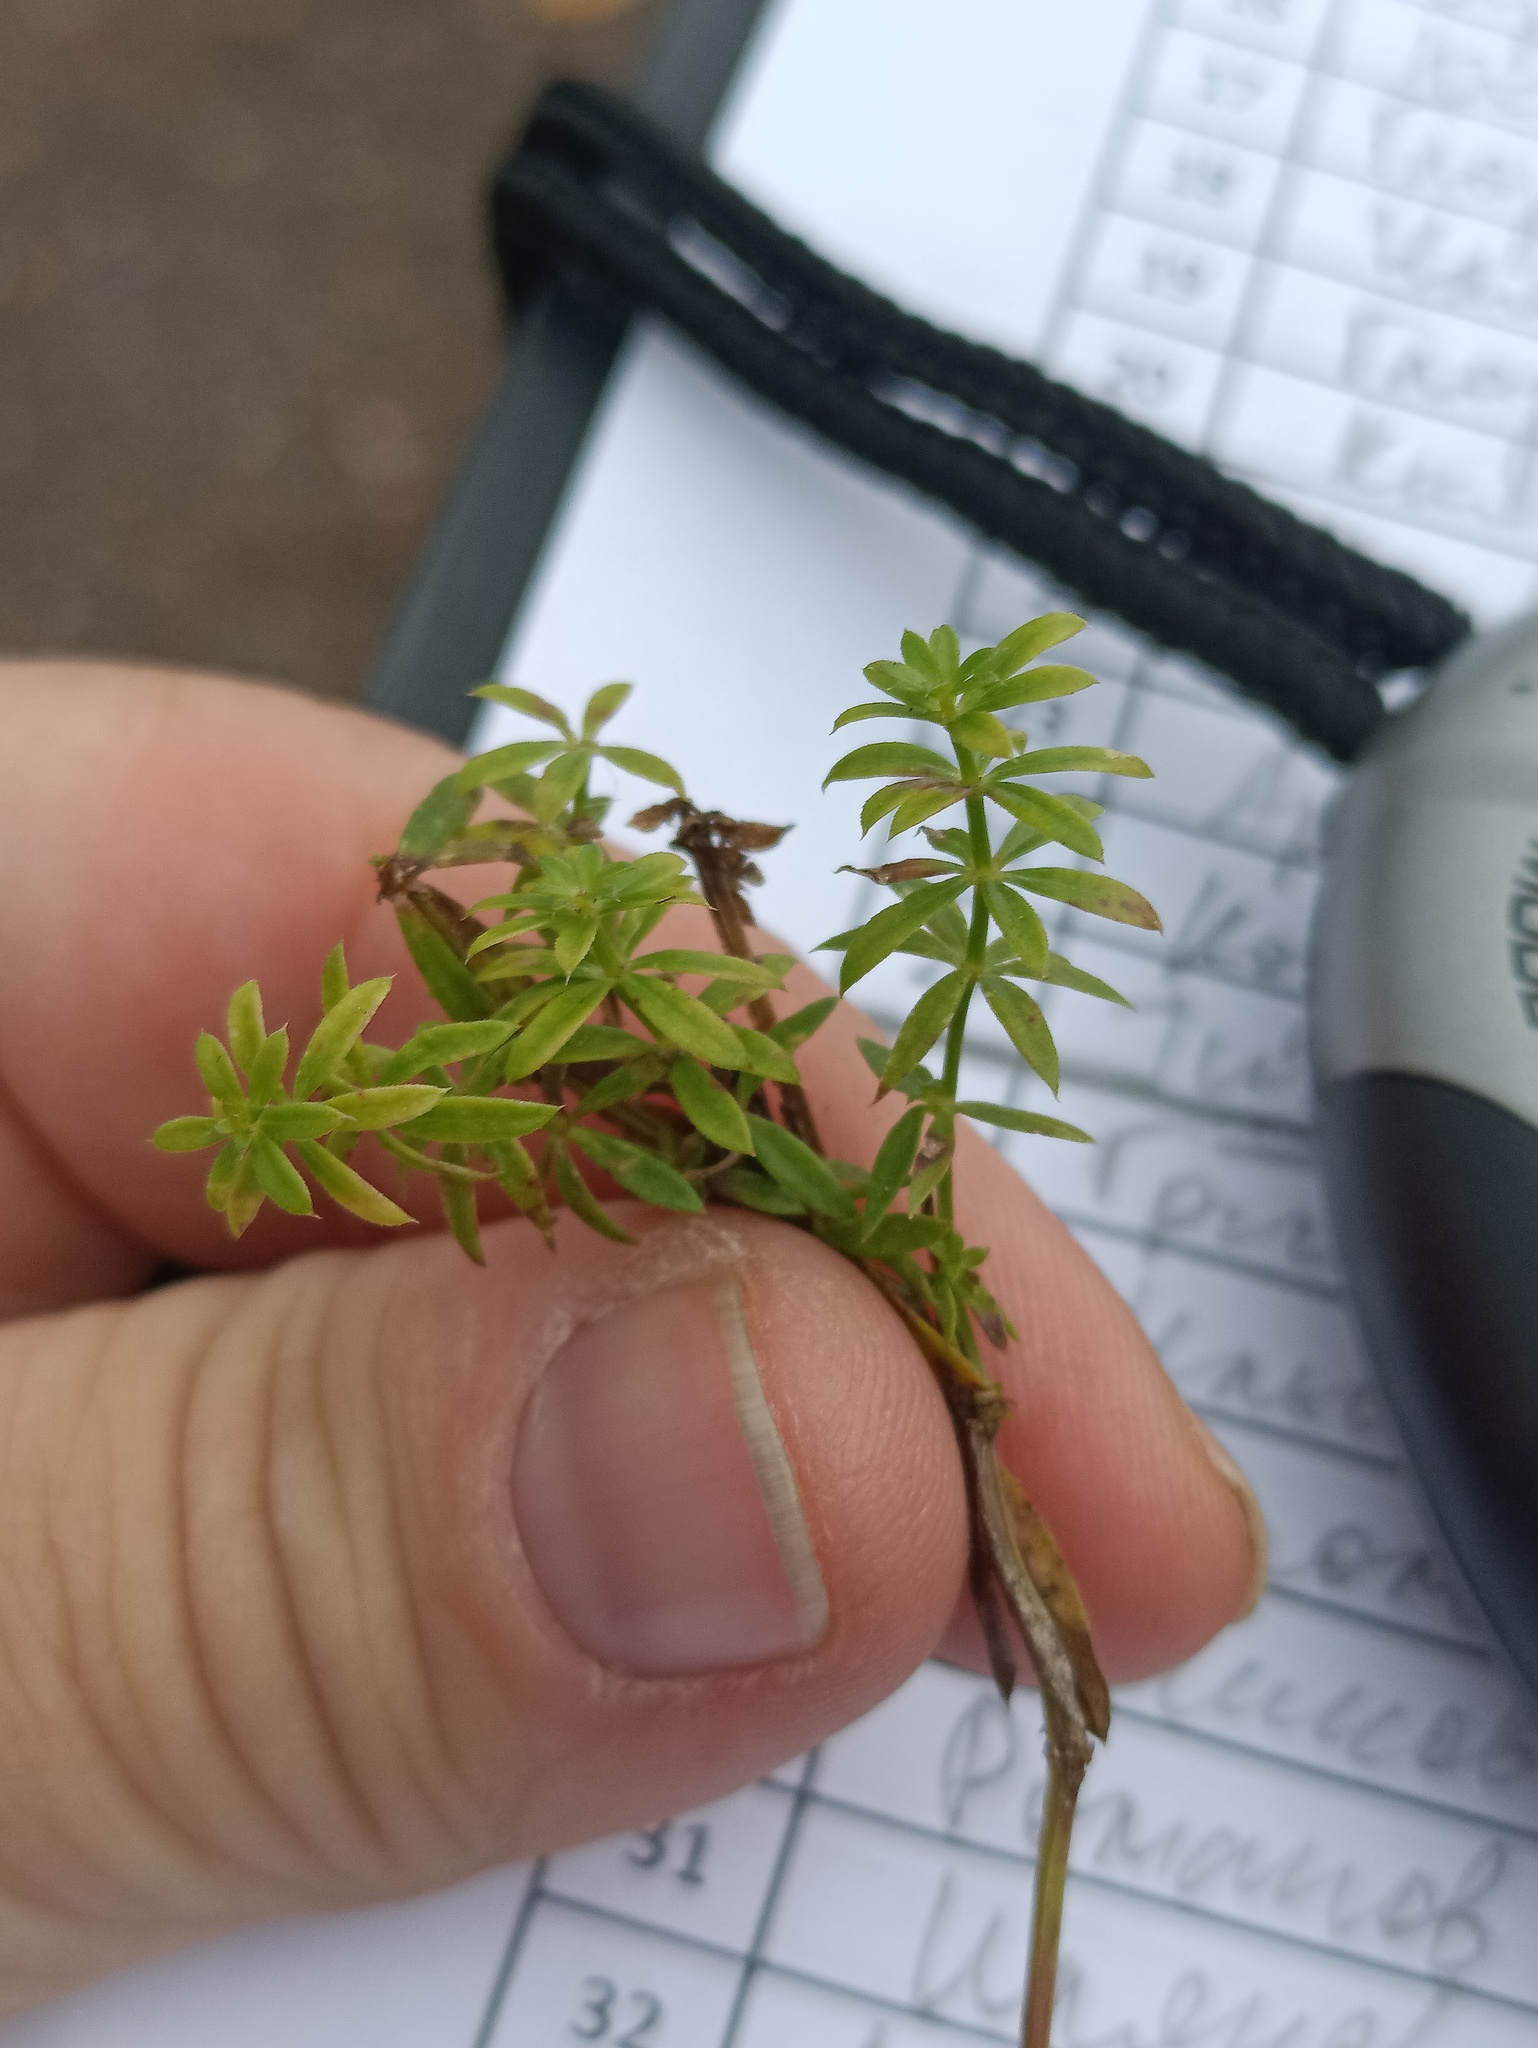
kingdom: Plantae
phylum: Tracheophyta
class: Magnoliopsida
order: Gentianales
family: Rubiaceae
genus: Galium
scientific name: Galium mollugo
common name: Hedge bedstraw
